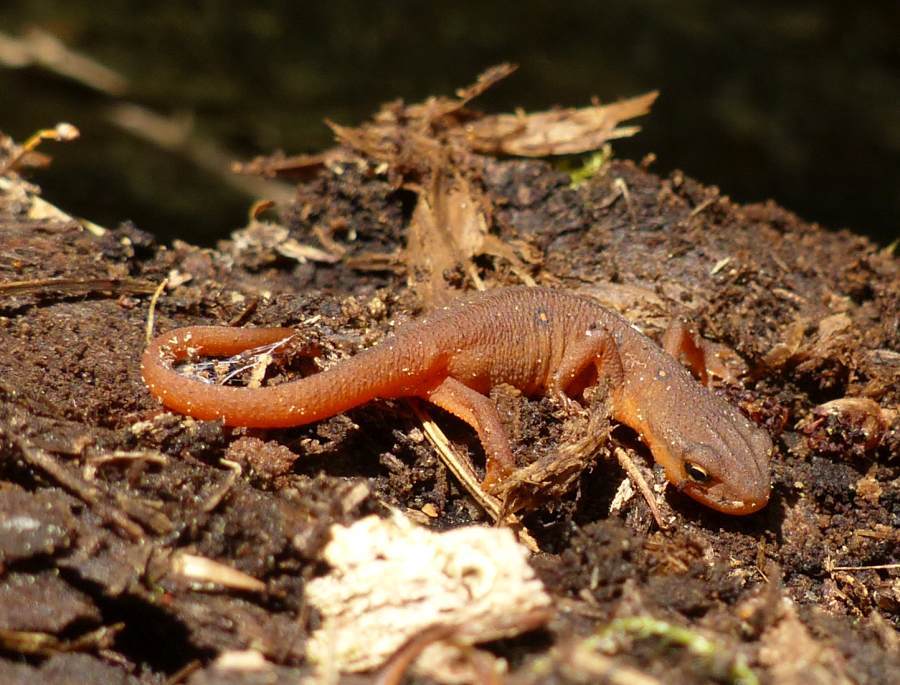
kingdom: Animalia
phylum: Chordata
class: Amphibia
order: Caudata
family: Salamandridae
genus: Notophthalmus
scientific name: Notophthalmus viridescens
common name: Eastern newt
